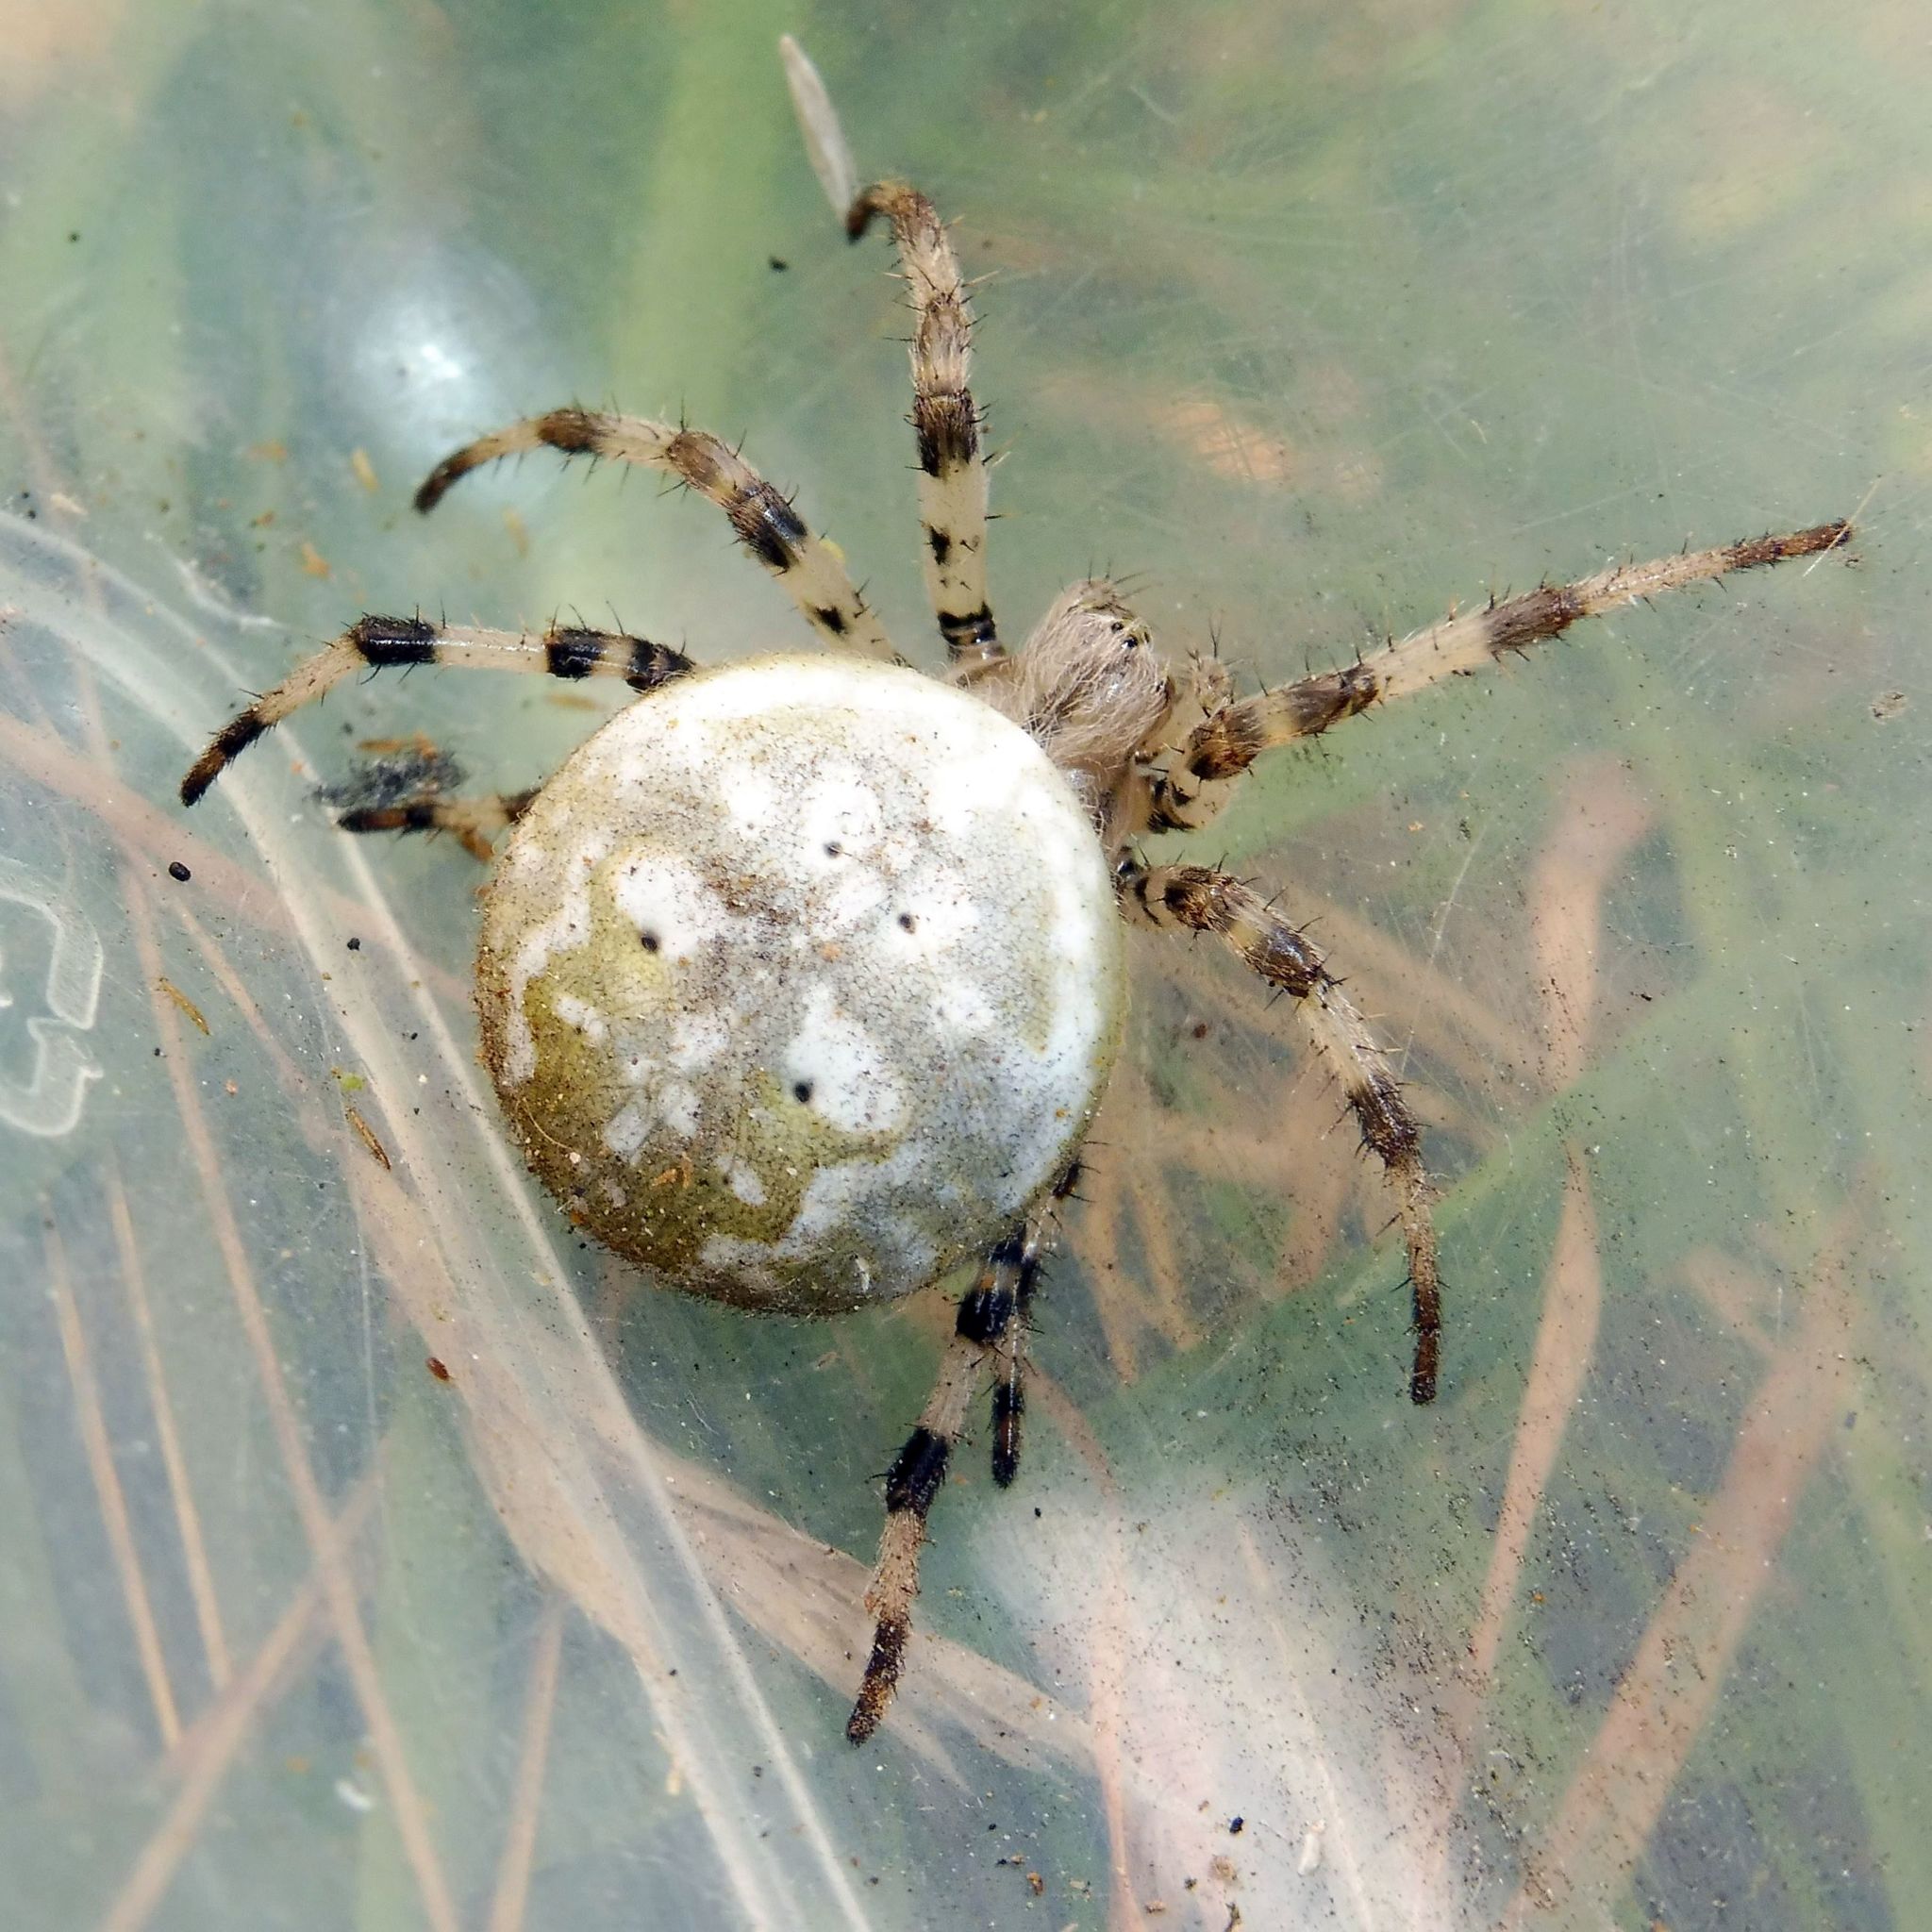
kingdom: Animalia
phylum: Arthropoda
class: Arachnida
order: Araneae
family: Araneidae
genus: Araneus
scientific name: Araneus quadratus
